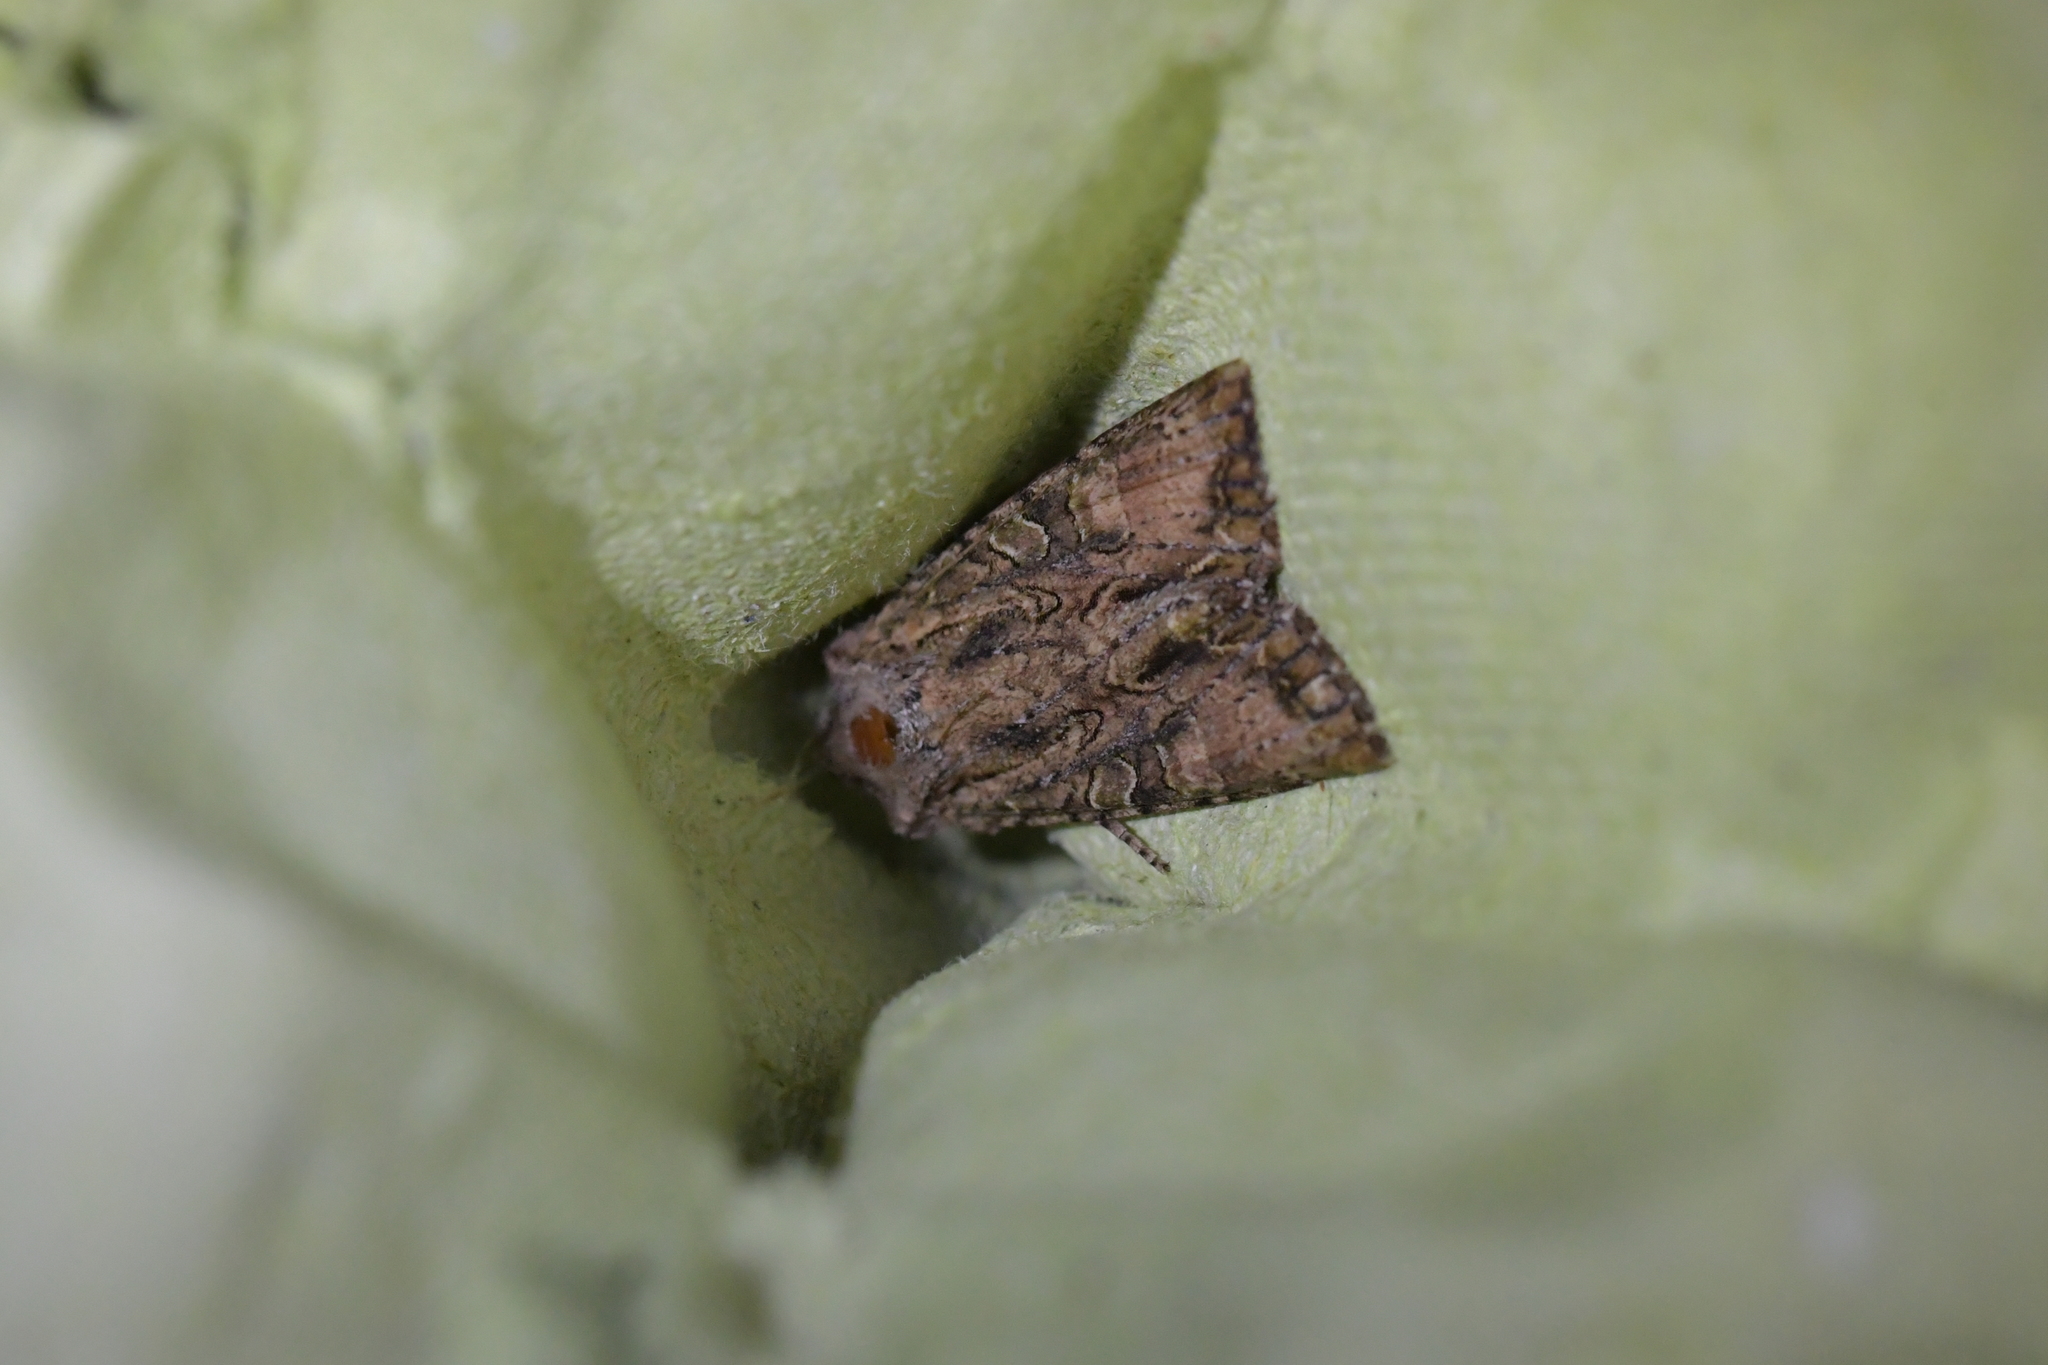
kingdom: Animalia
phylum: Arthropoda
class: Insecta
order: Lepidoptera
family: Noctuidae
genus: Ichneutica
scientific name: Ichneutica mutans
